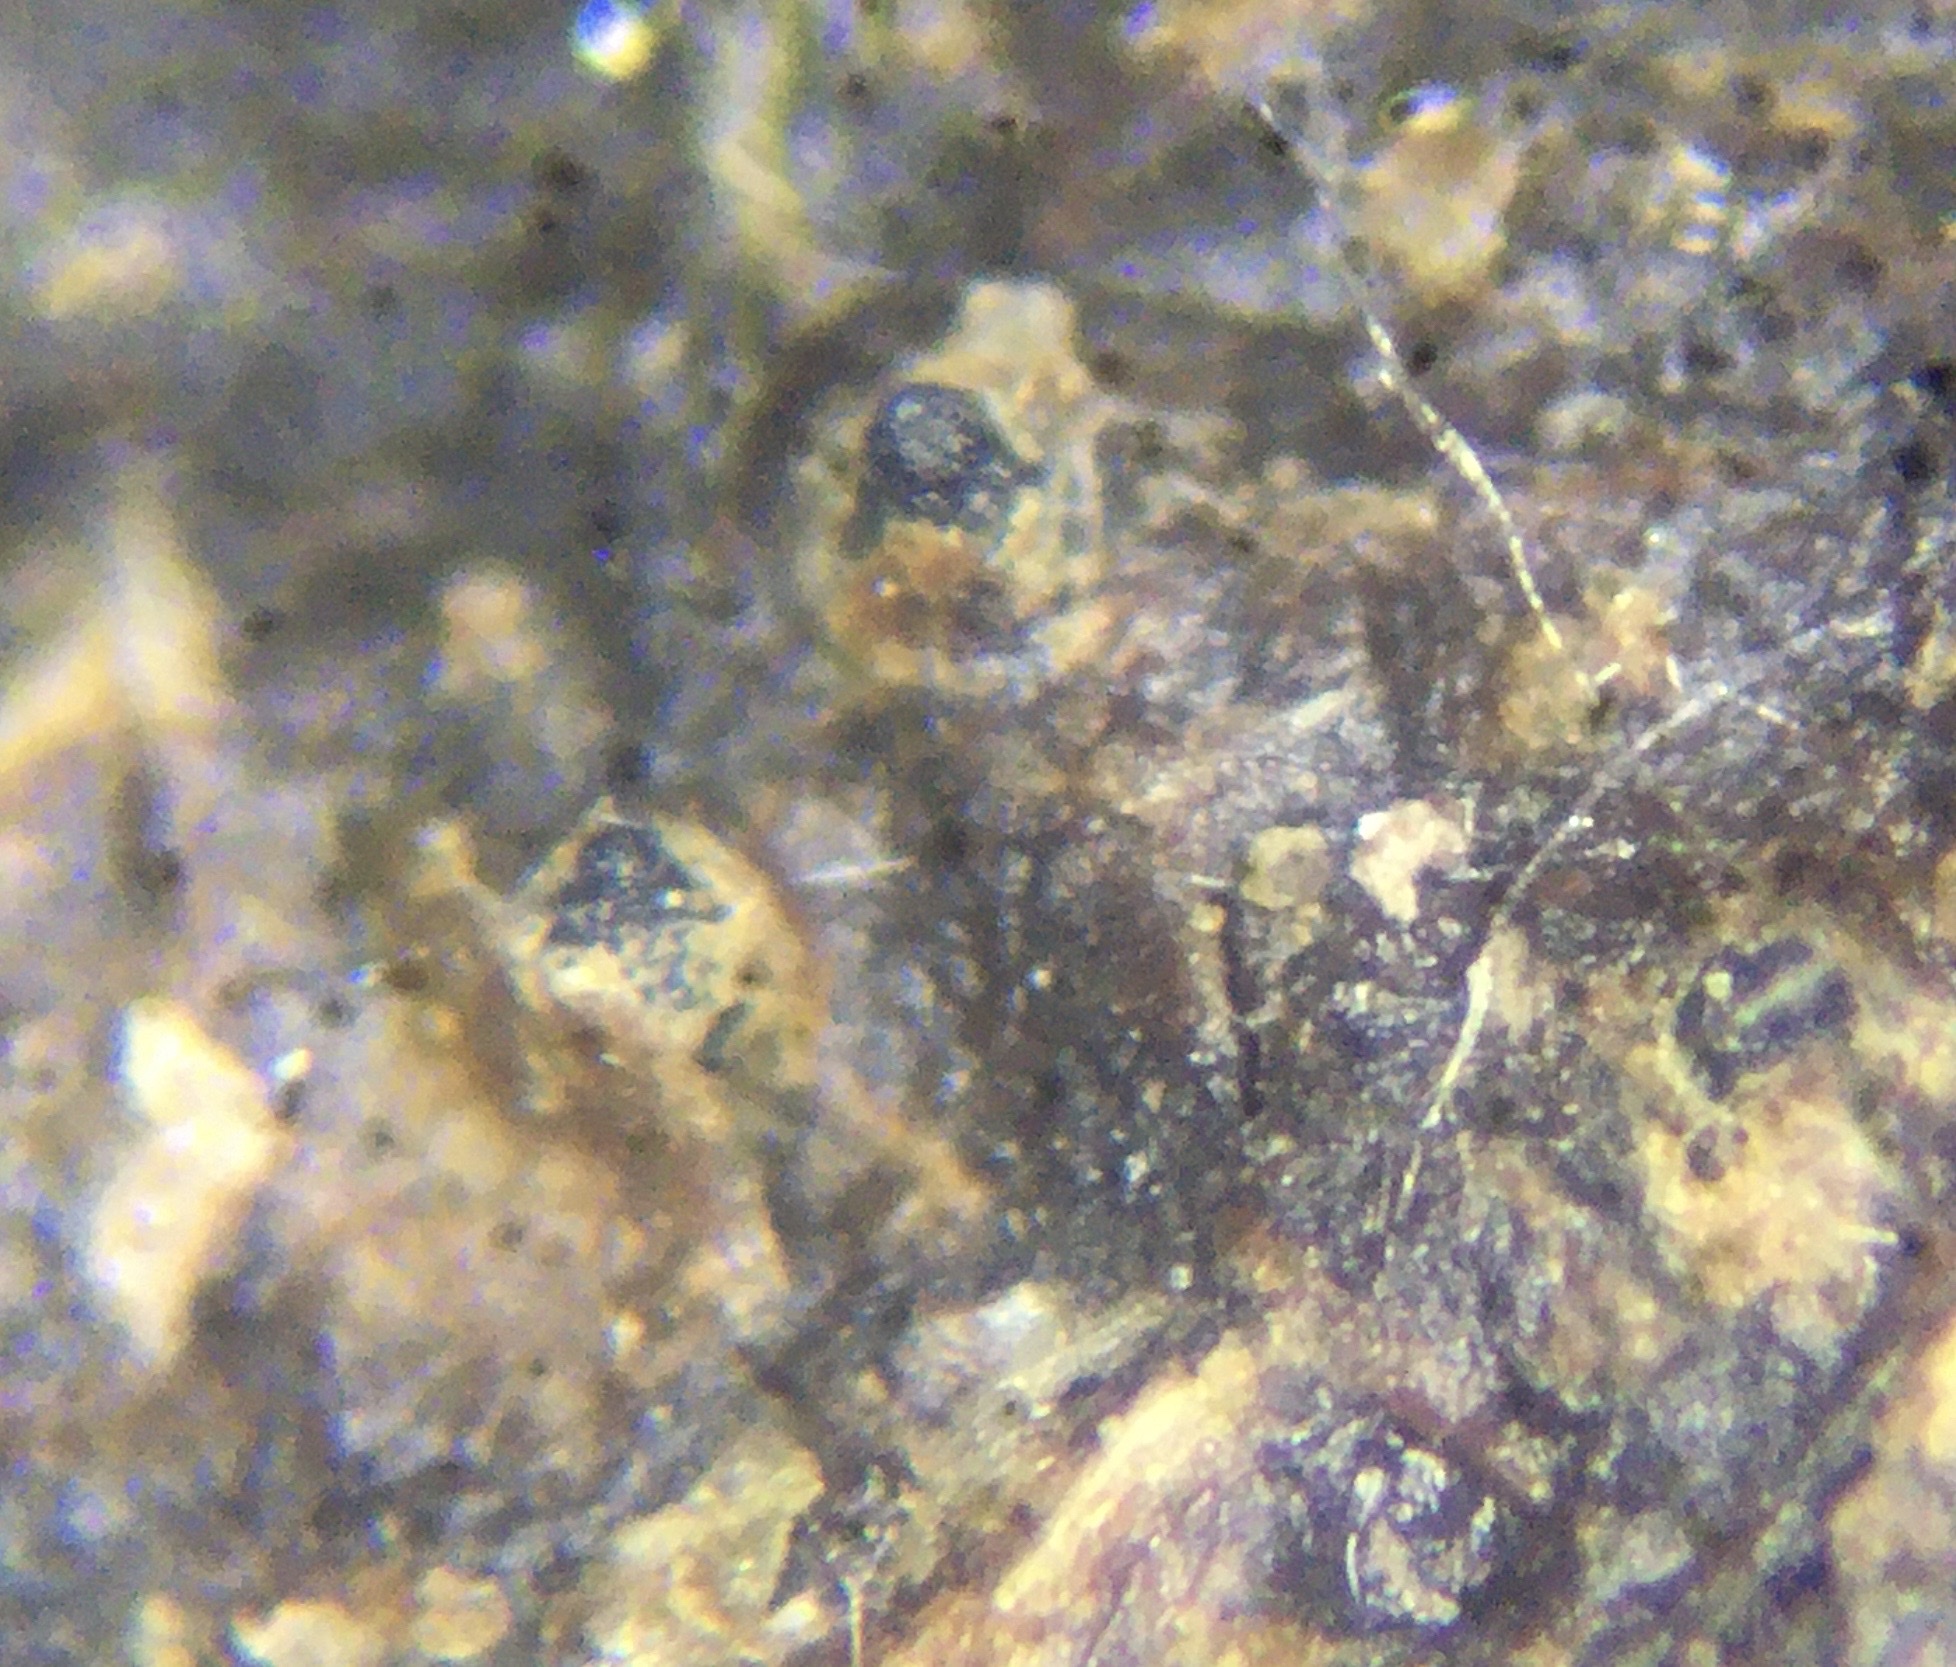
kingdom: Fungi
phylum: Ascomycota
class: Dothideomycetes
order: Pleosporales
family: Sporormiaceae
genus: Sporormiella
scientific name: Sporormiella vexans
